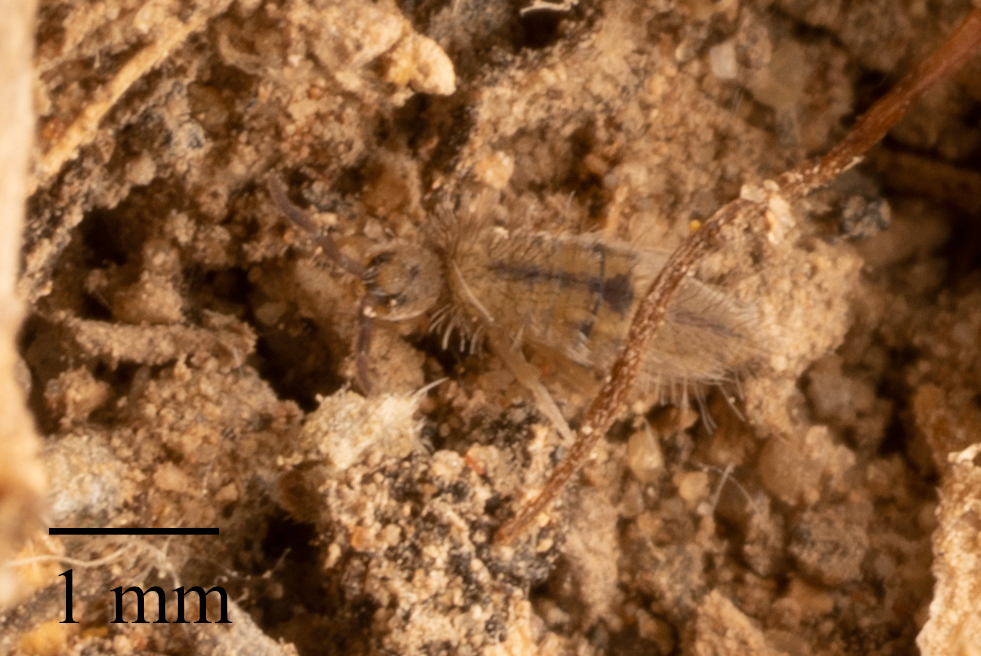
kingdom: Animalia
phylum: Arthropoda
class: Collembola
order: Entomobryomorpha
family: Entomobryidae
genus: Entomobrya
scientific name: Entomobrya unostrigata
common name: Springtail
